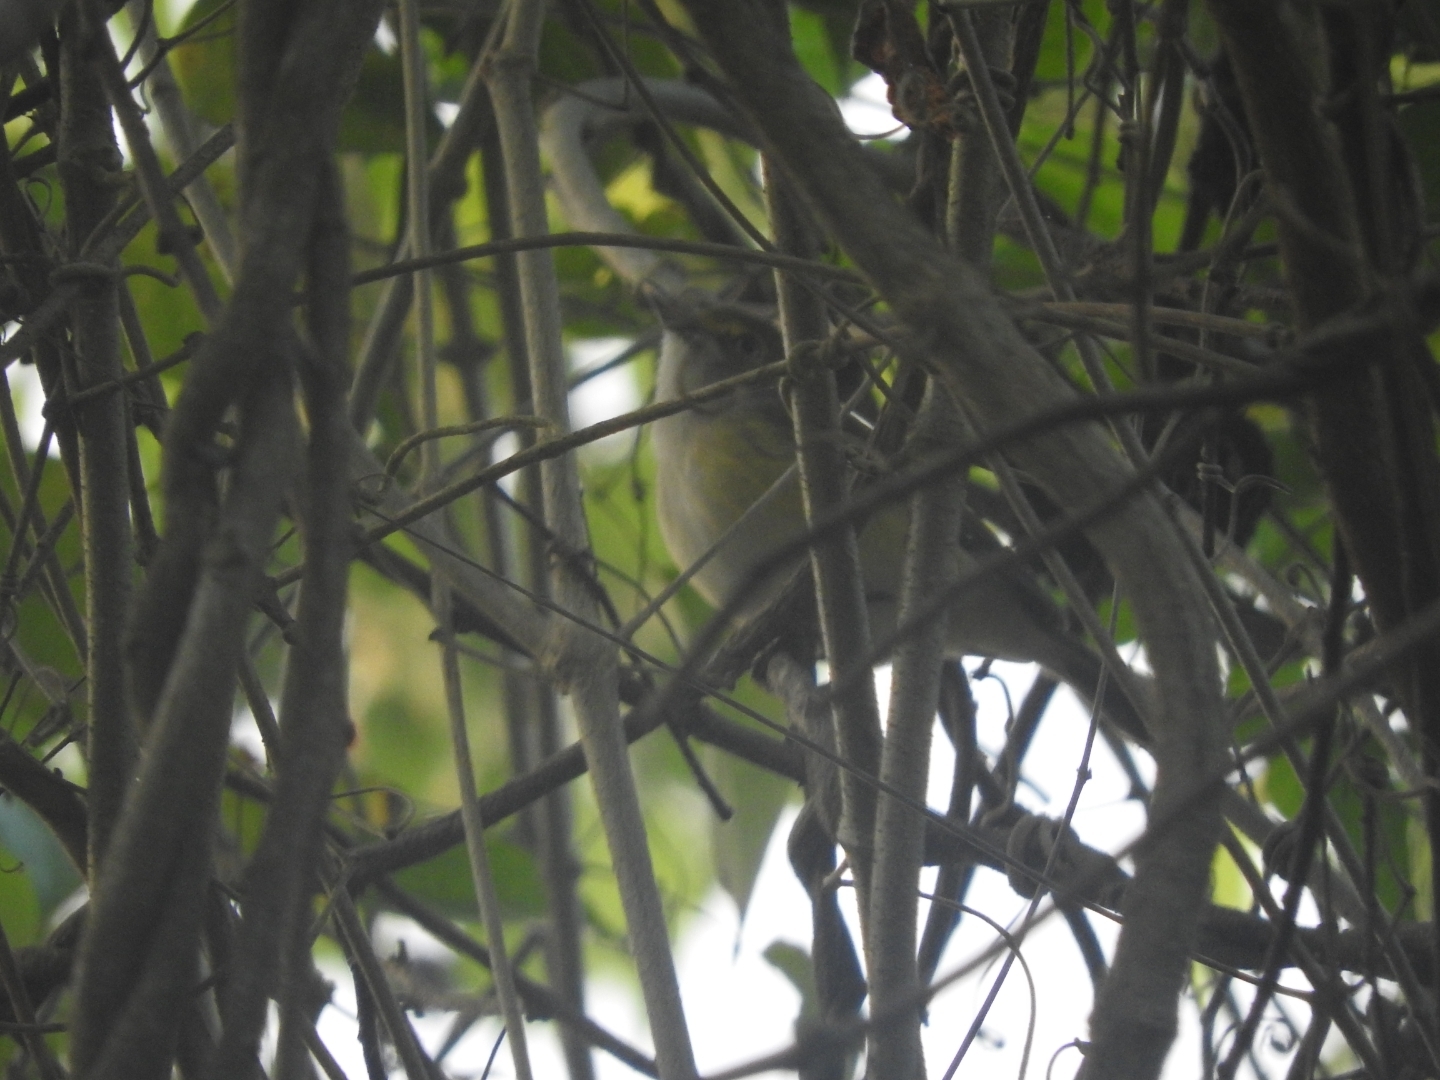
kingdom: Animalia
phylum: Chordata
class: Aves
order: Passeriformes
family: Vireonidae
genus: Vireo
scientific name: Vireo griseus
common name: White-eyed vireo
